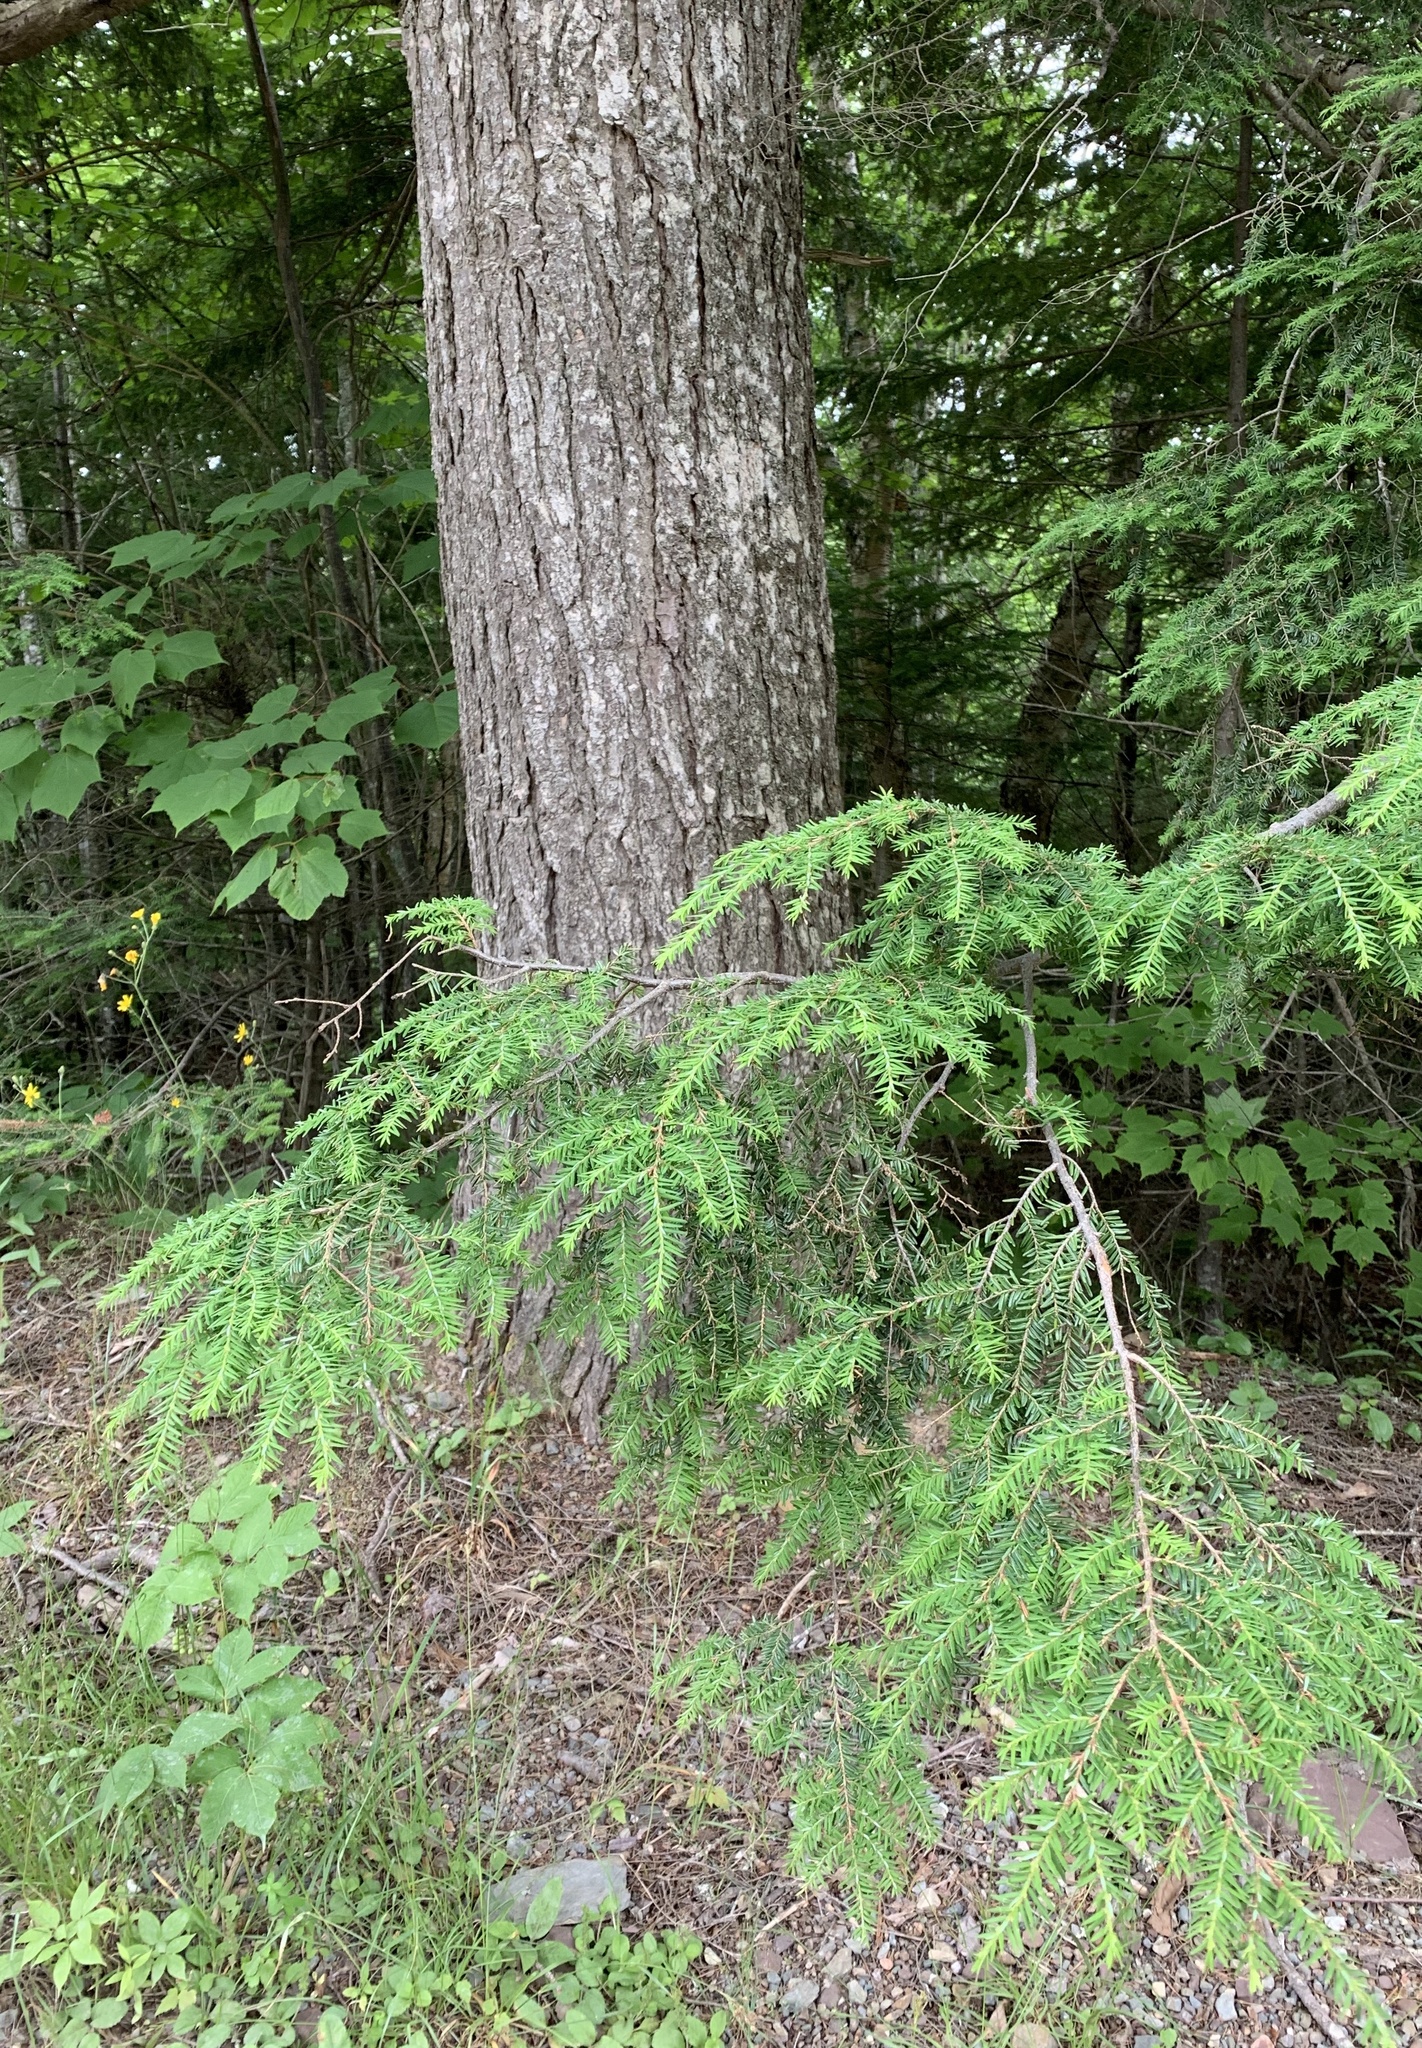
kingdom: Plantae
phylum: Tracheophyta
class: Pinopsida
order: Pinales
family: Pinaceae
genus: Tsuga
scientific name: Tsuga canadensis
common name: Eastern hemlock
